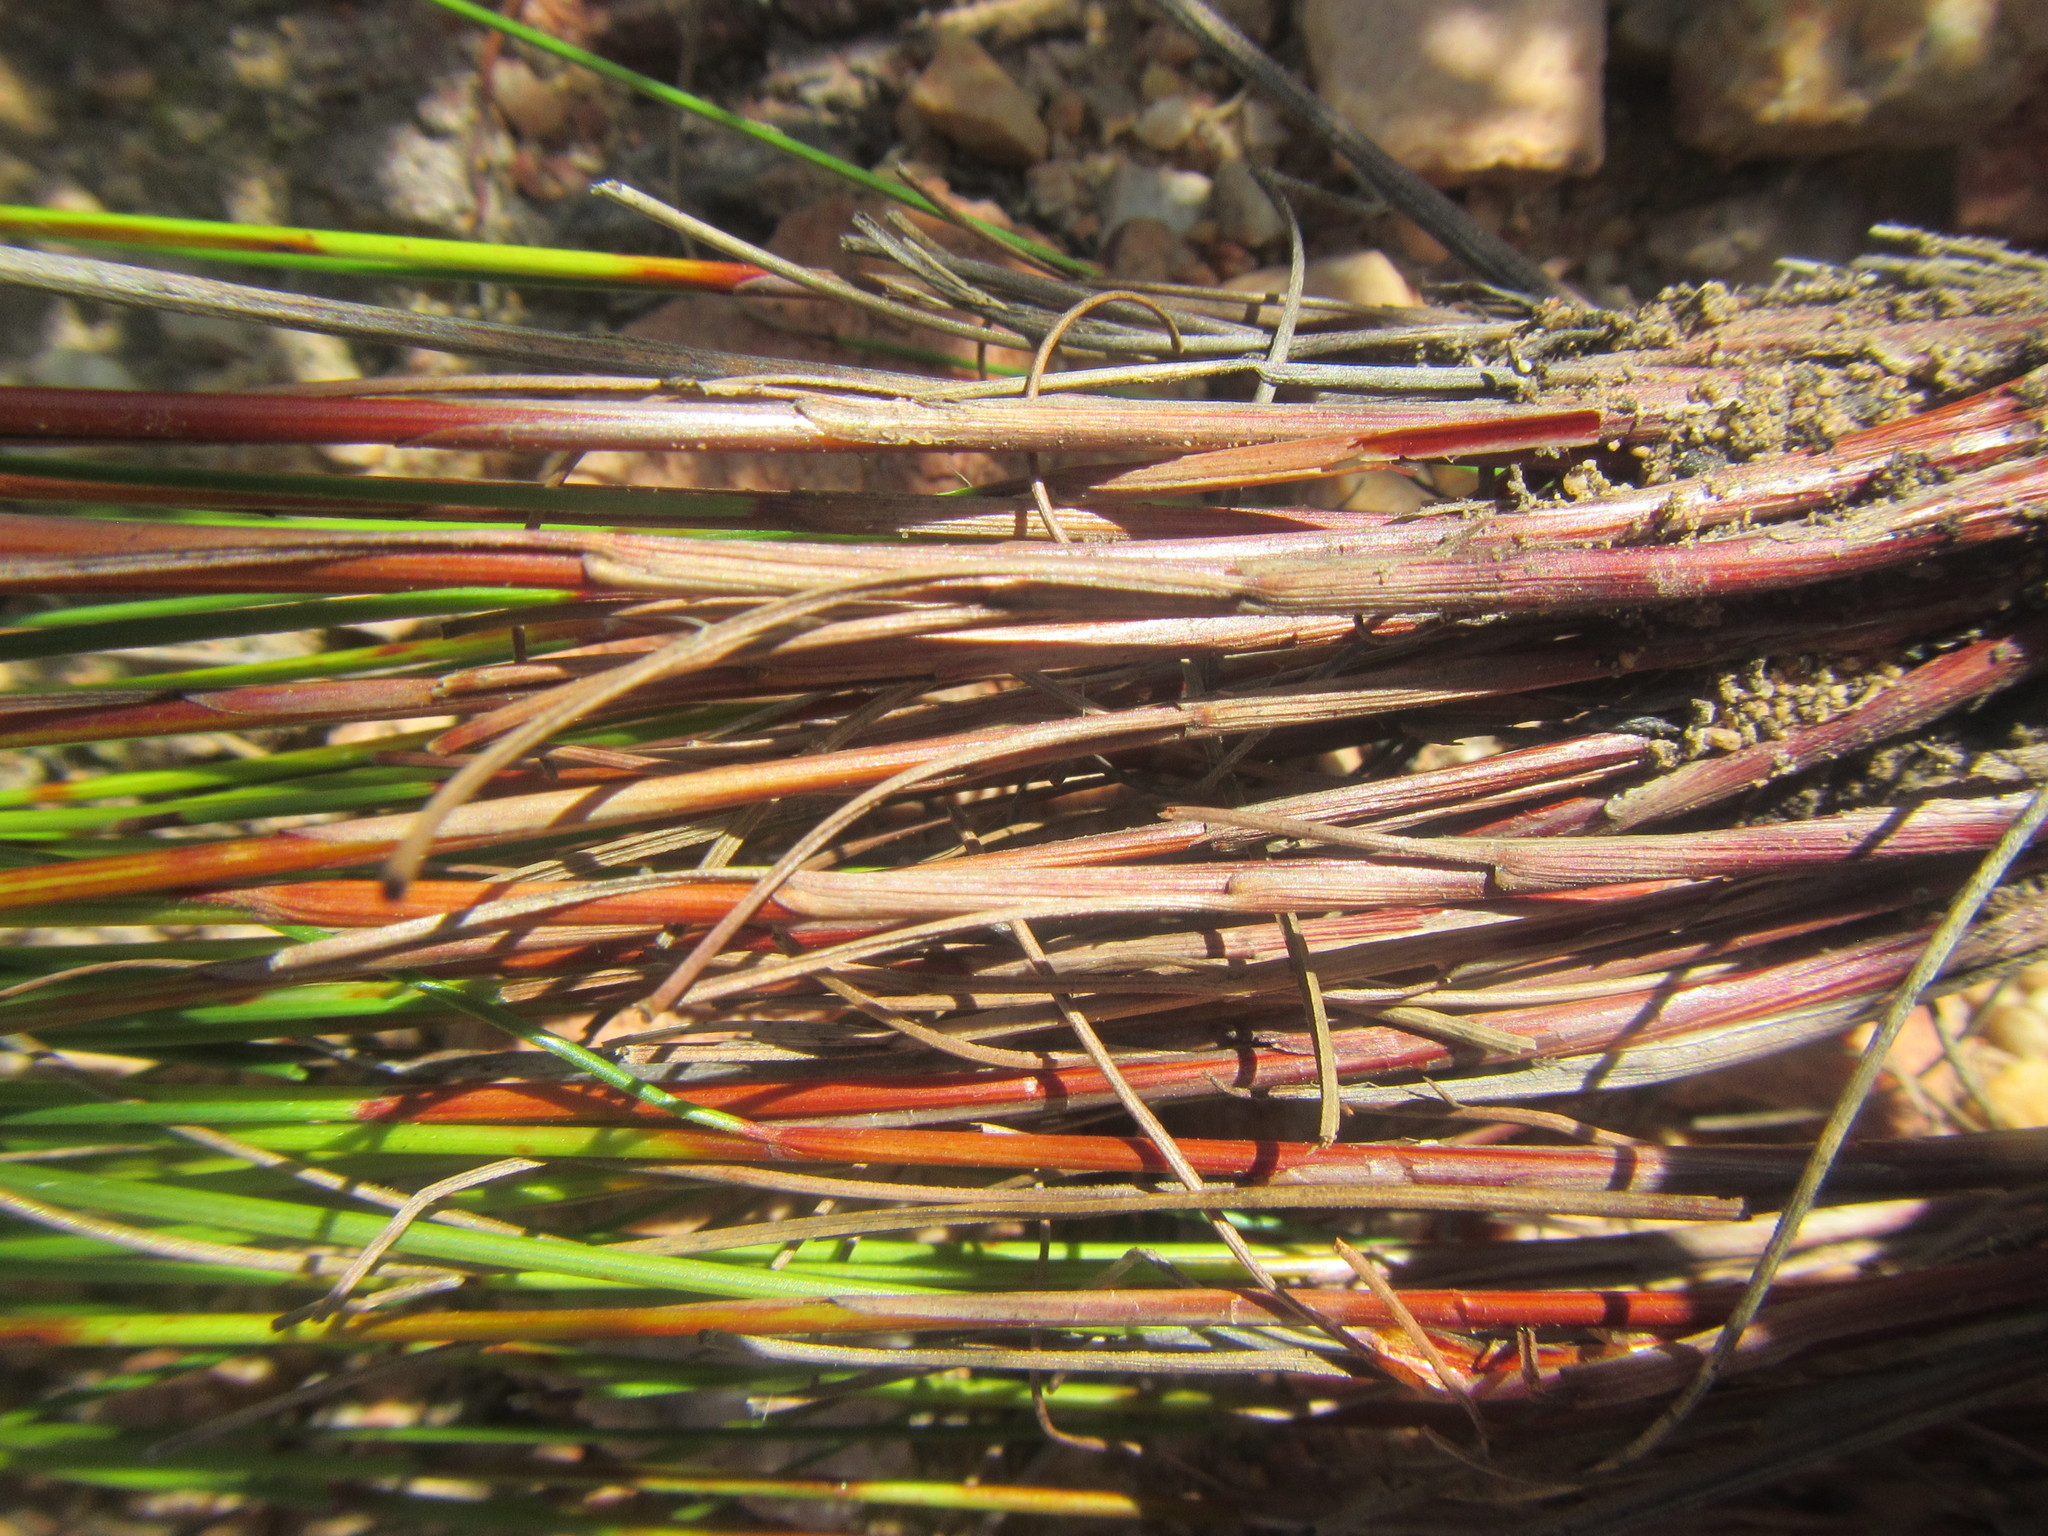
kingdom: Plantae
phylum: Tracheophyta
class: Liliopsida
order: Poales
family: Cyperaceae
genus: Schoenus
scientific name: Schoenus submarginalis
